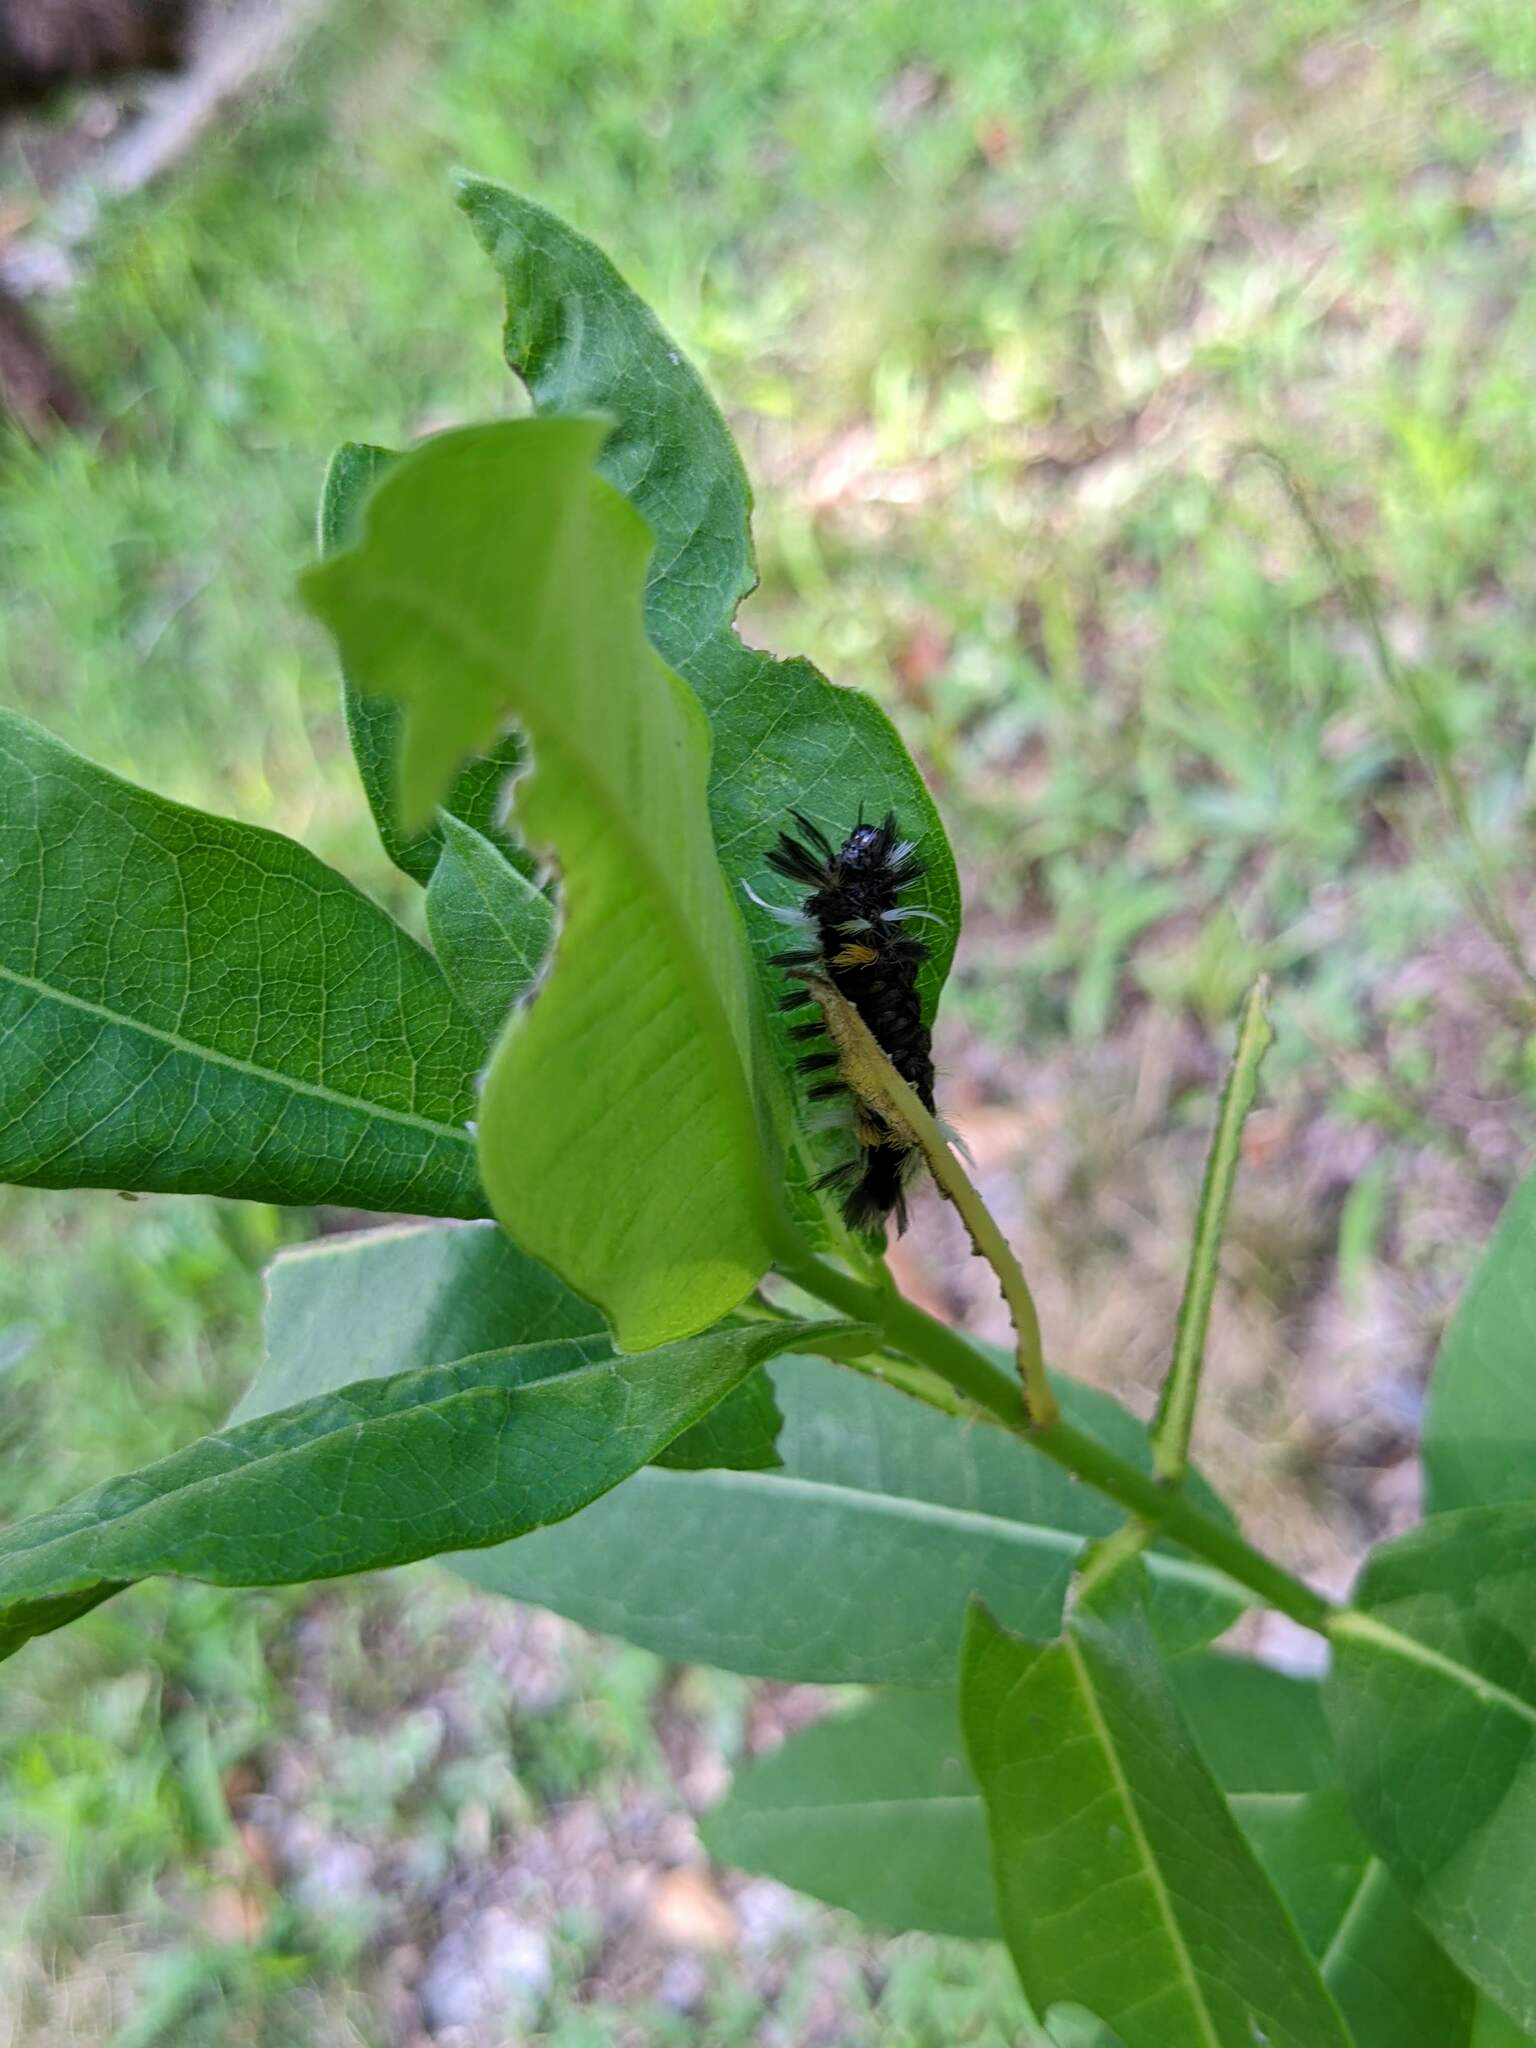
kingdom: Animalia
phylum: Arthropoda
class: Insecta
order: Lepidoptera
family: Erebidae
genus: Euchaetes
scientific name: Euchaetes egle
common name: Milkweed tussock moth
